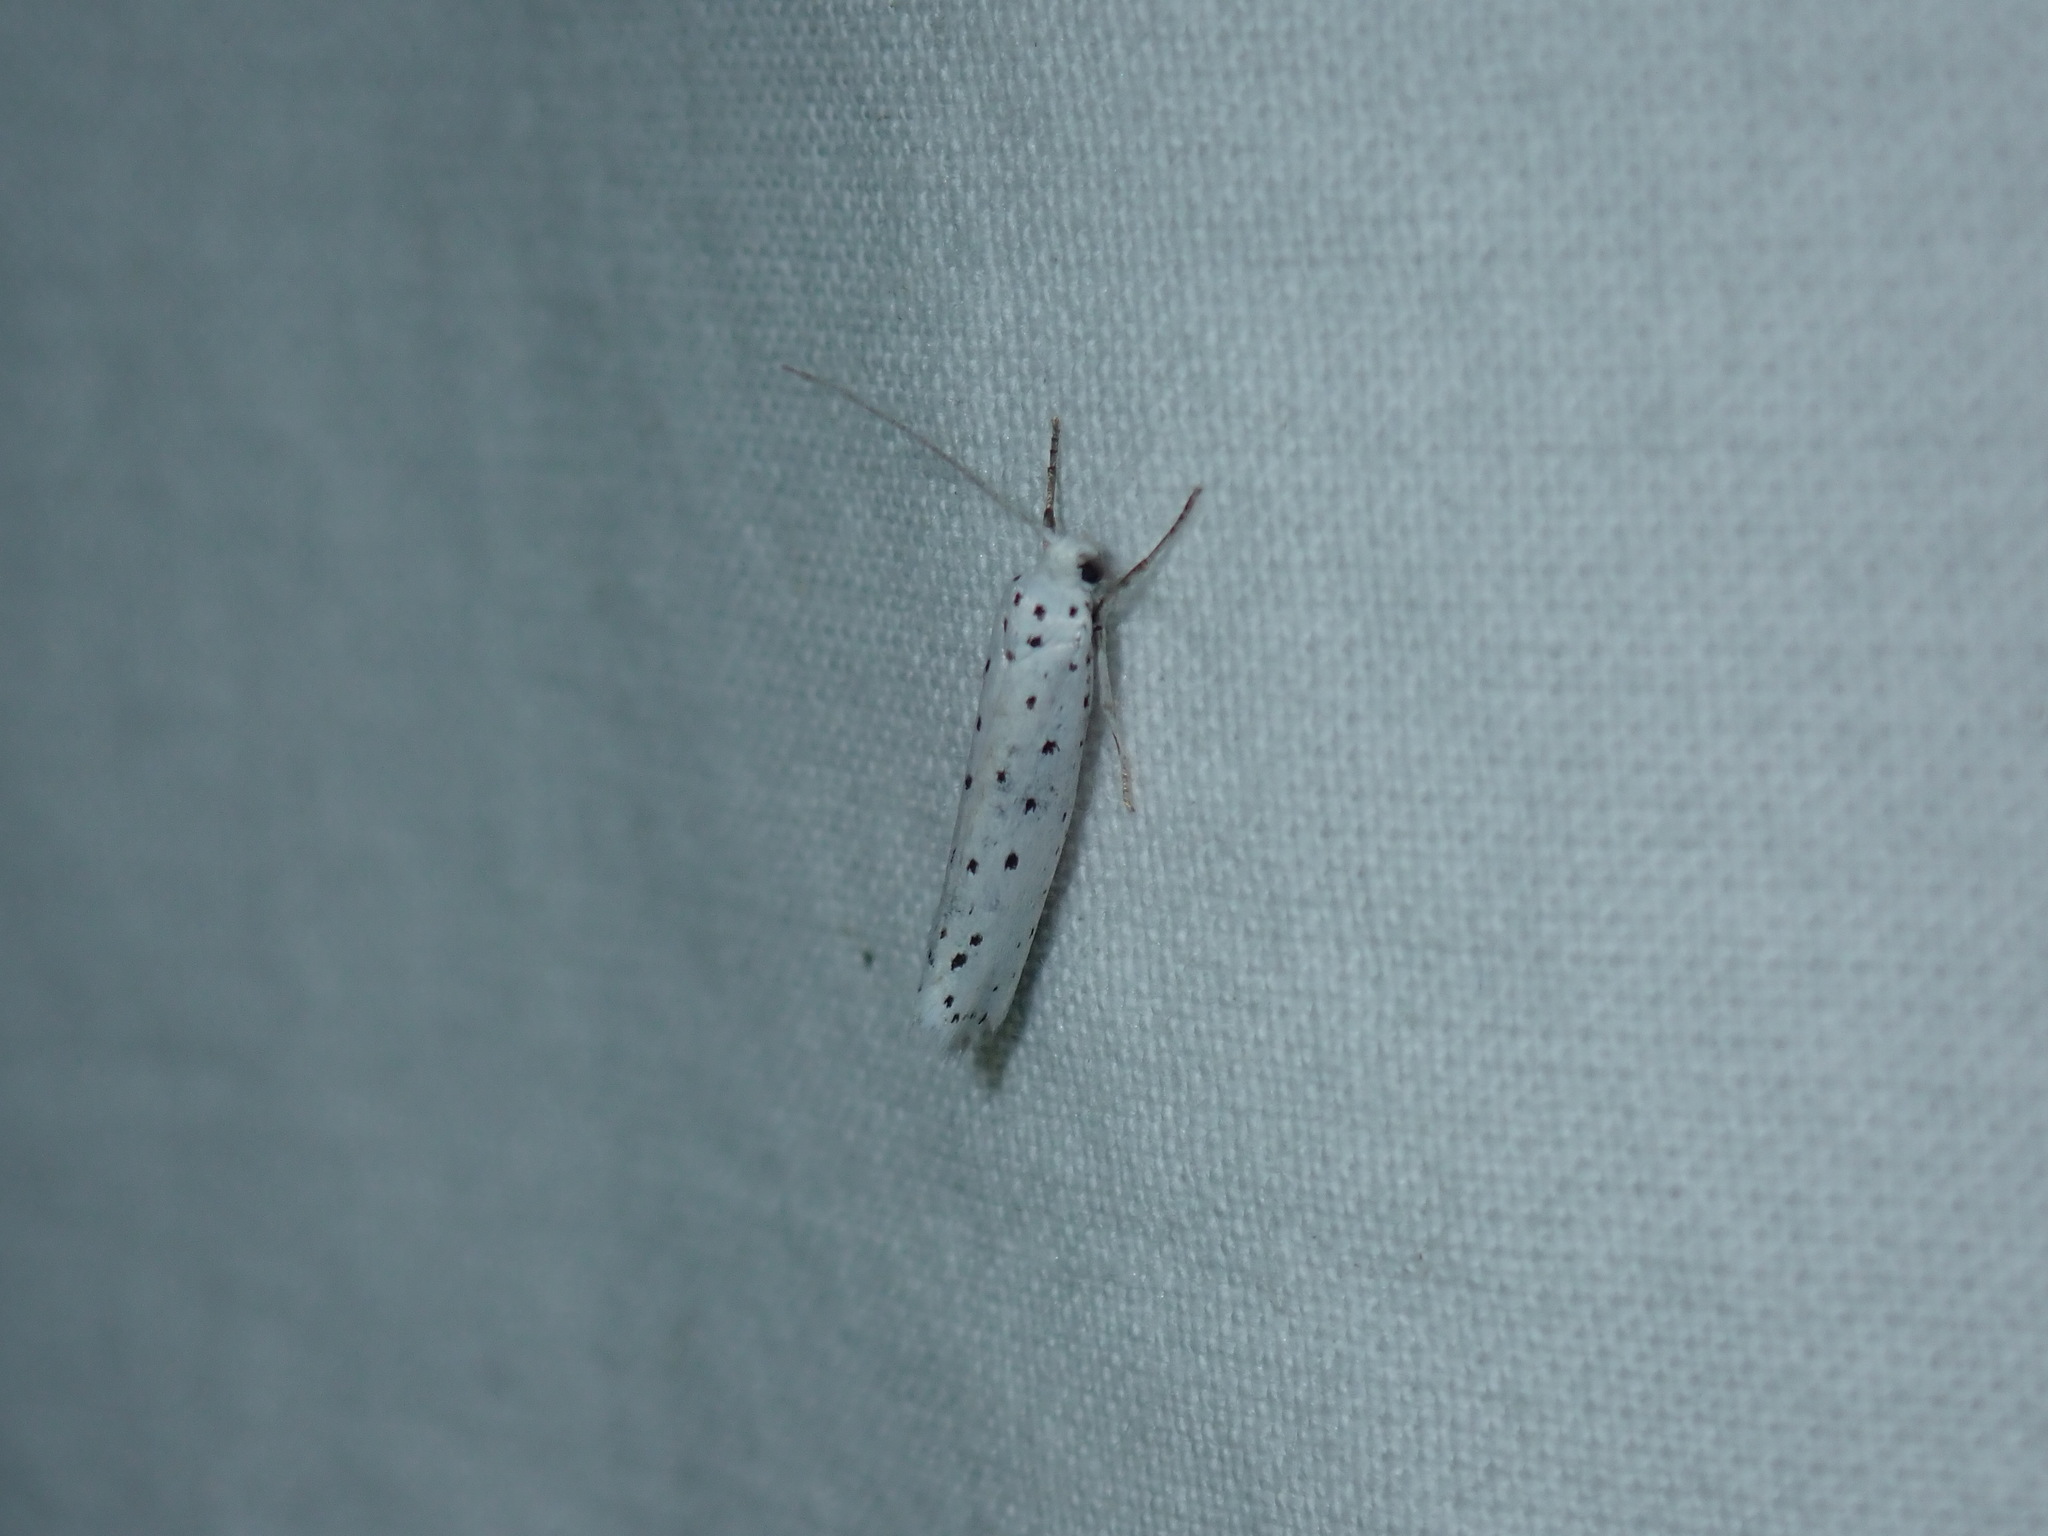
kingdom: Animalia
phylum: Arthropoda
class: Insecta
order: Lepidoptera
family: Yponomeutidae
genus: Yponomeuta
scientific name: Yponomeuta cagnagellus
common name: Spindle ermine
